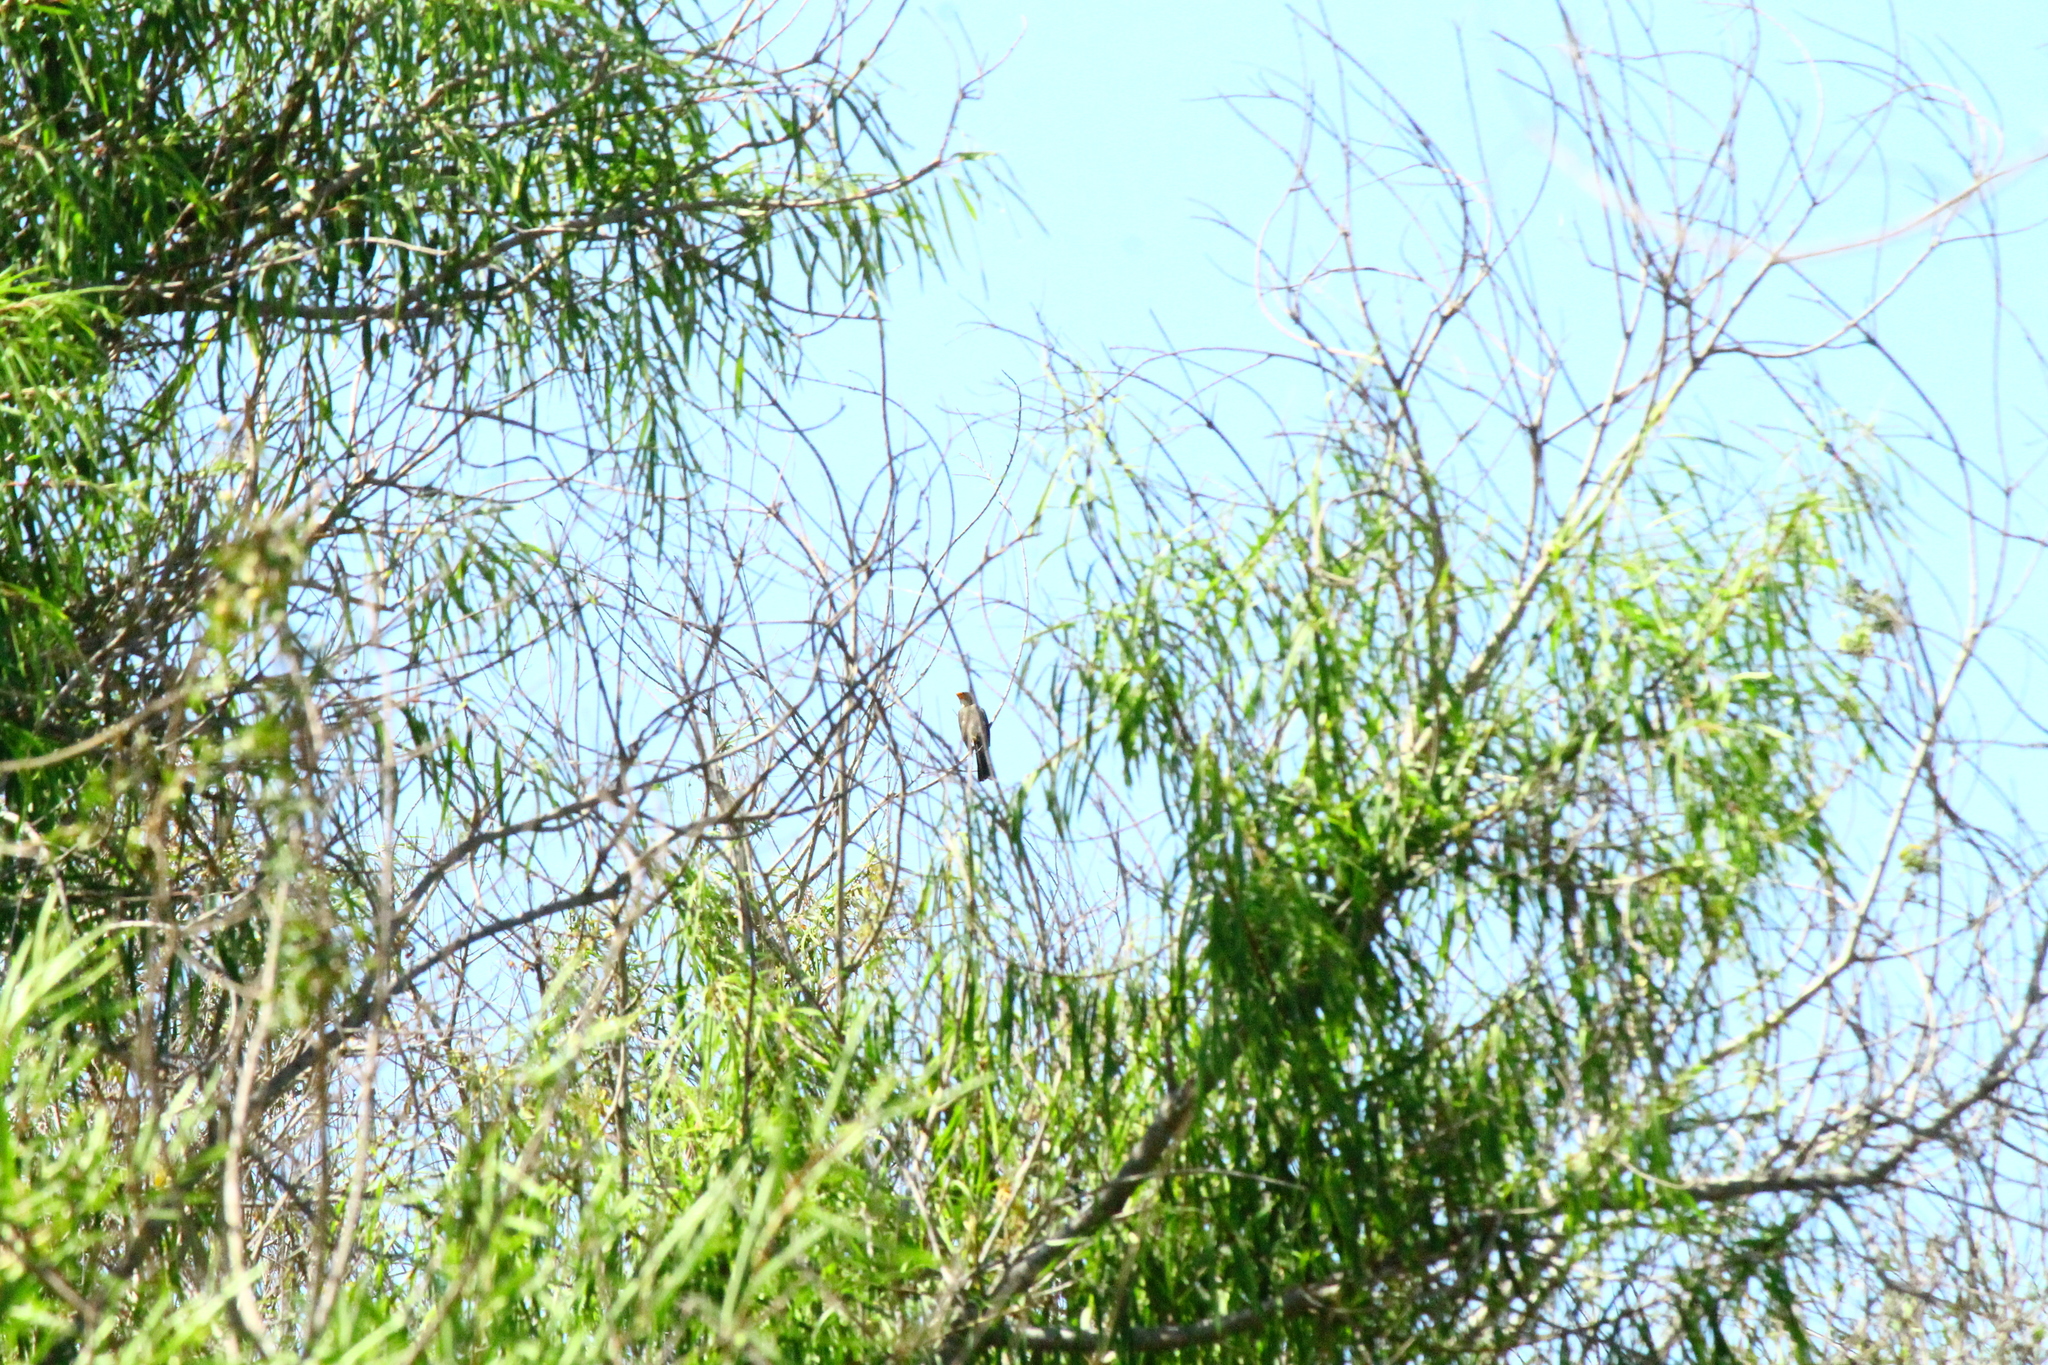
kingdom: Animalia
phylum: Chordata
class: Aves
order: Passeriformes
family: Thraupidae
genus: Saltator
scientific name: Saltator aurantiirostris
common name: Golden-billed saltator
